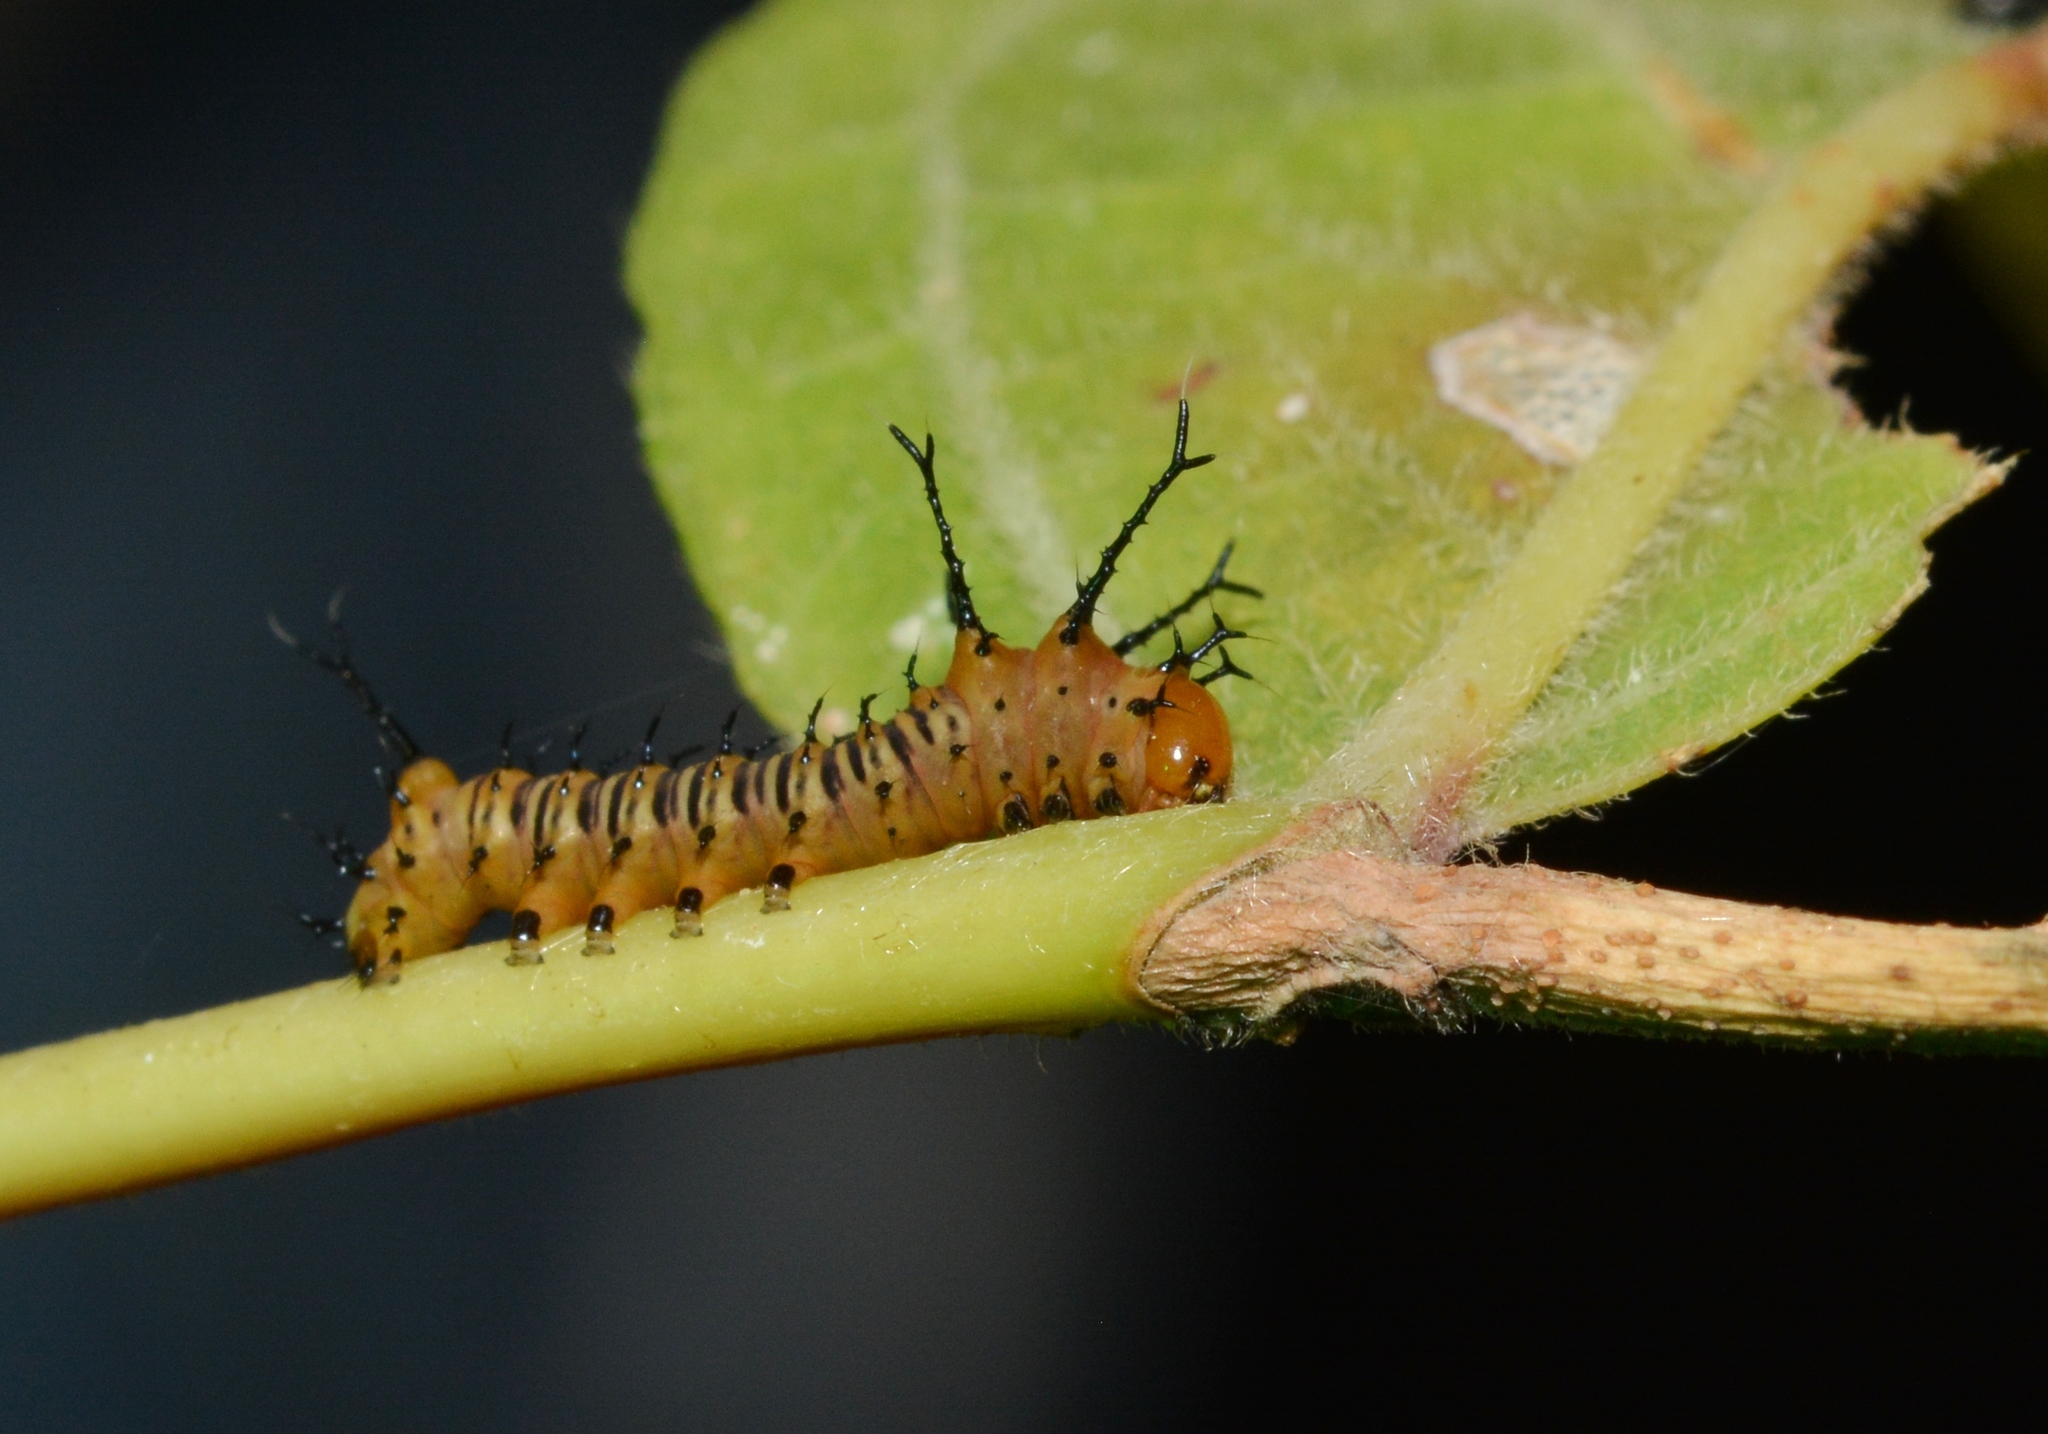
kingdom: Animalia
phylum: Arthropoda
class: Insecta
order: Lepidoptera
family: Saturniidae
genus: Eacles
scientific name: Eacles imperialis
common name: Imperial moth
